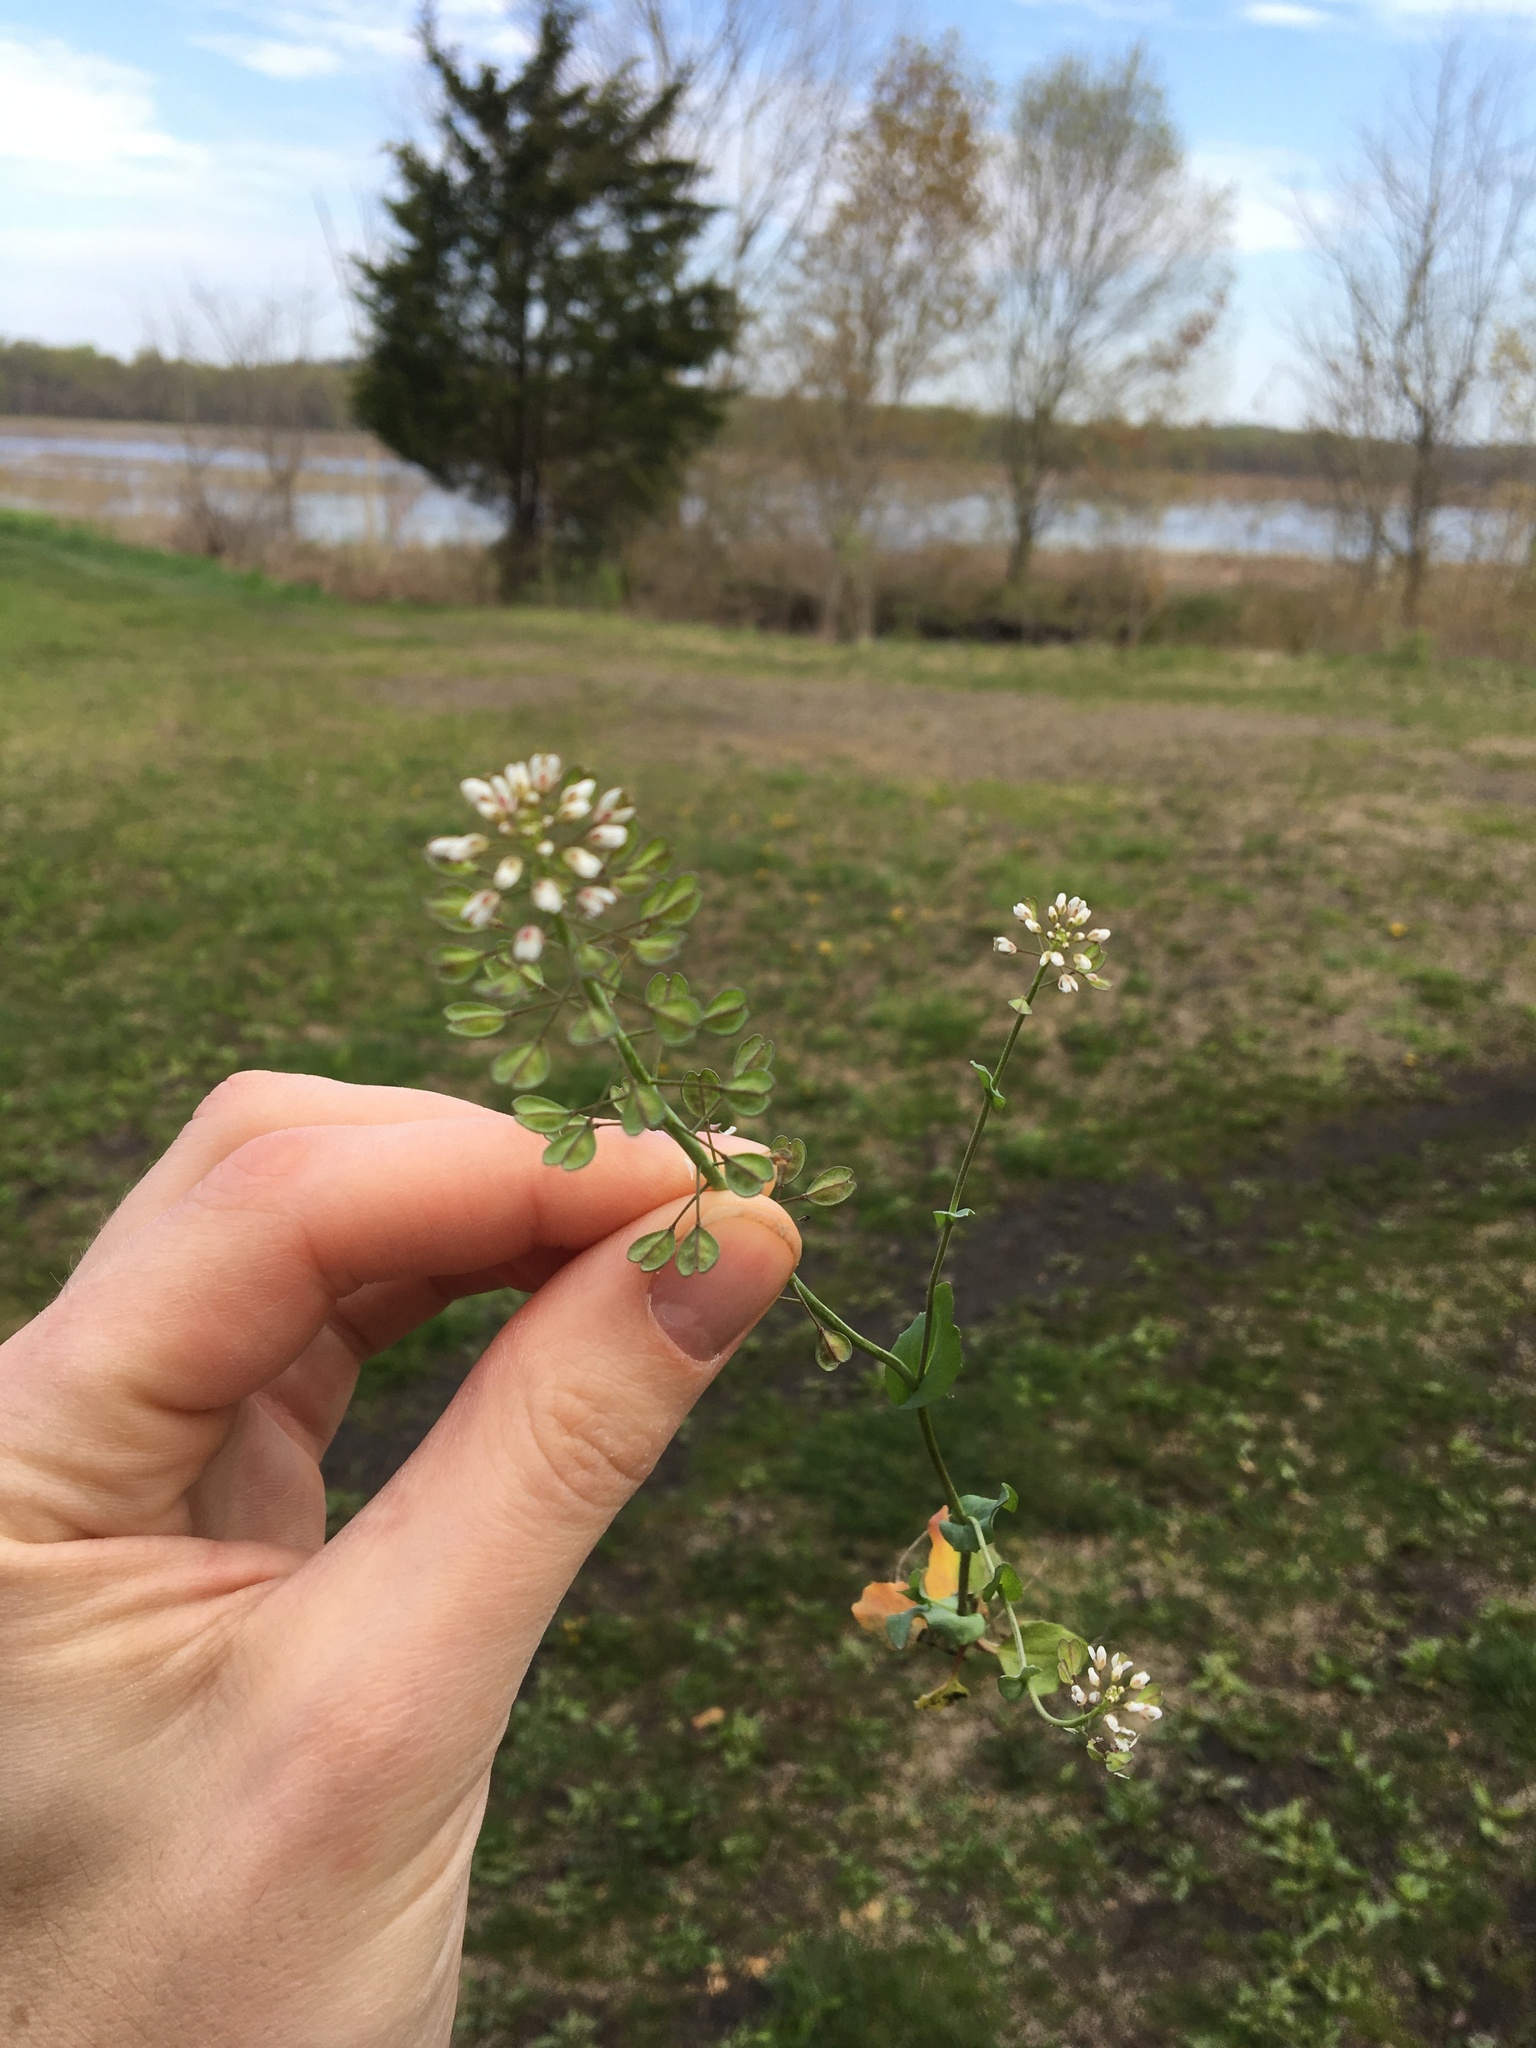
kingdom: Plantae
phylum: Tracheophyta
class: Magnoliopsida
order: Brassicales
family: Brassicaceae
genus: Noccaea
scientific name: Noccaea perfoliata
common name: Perfoliate pennycress
